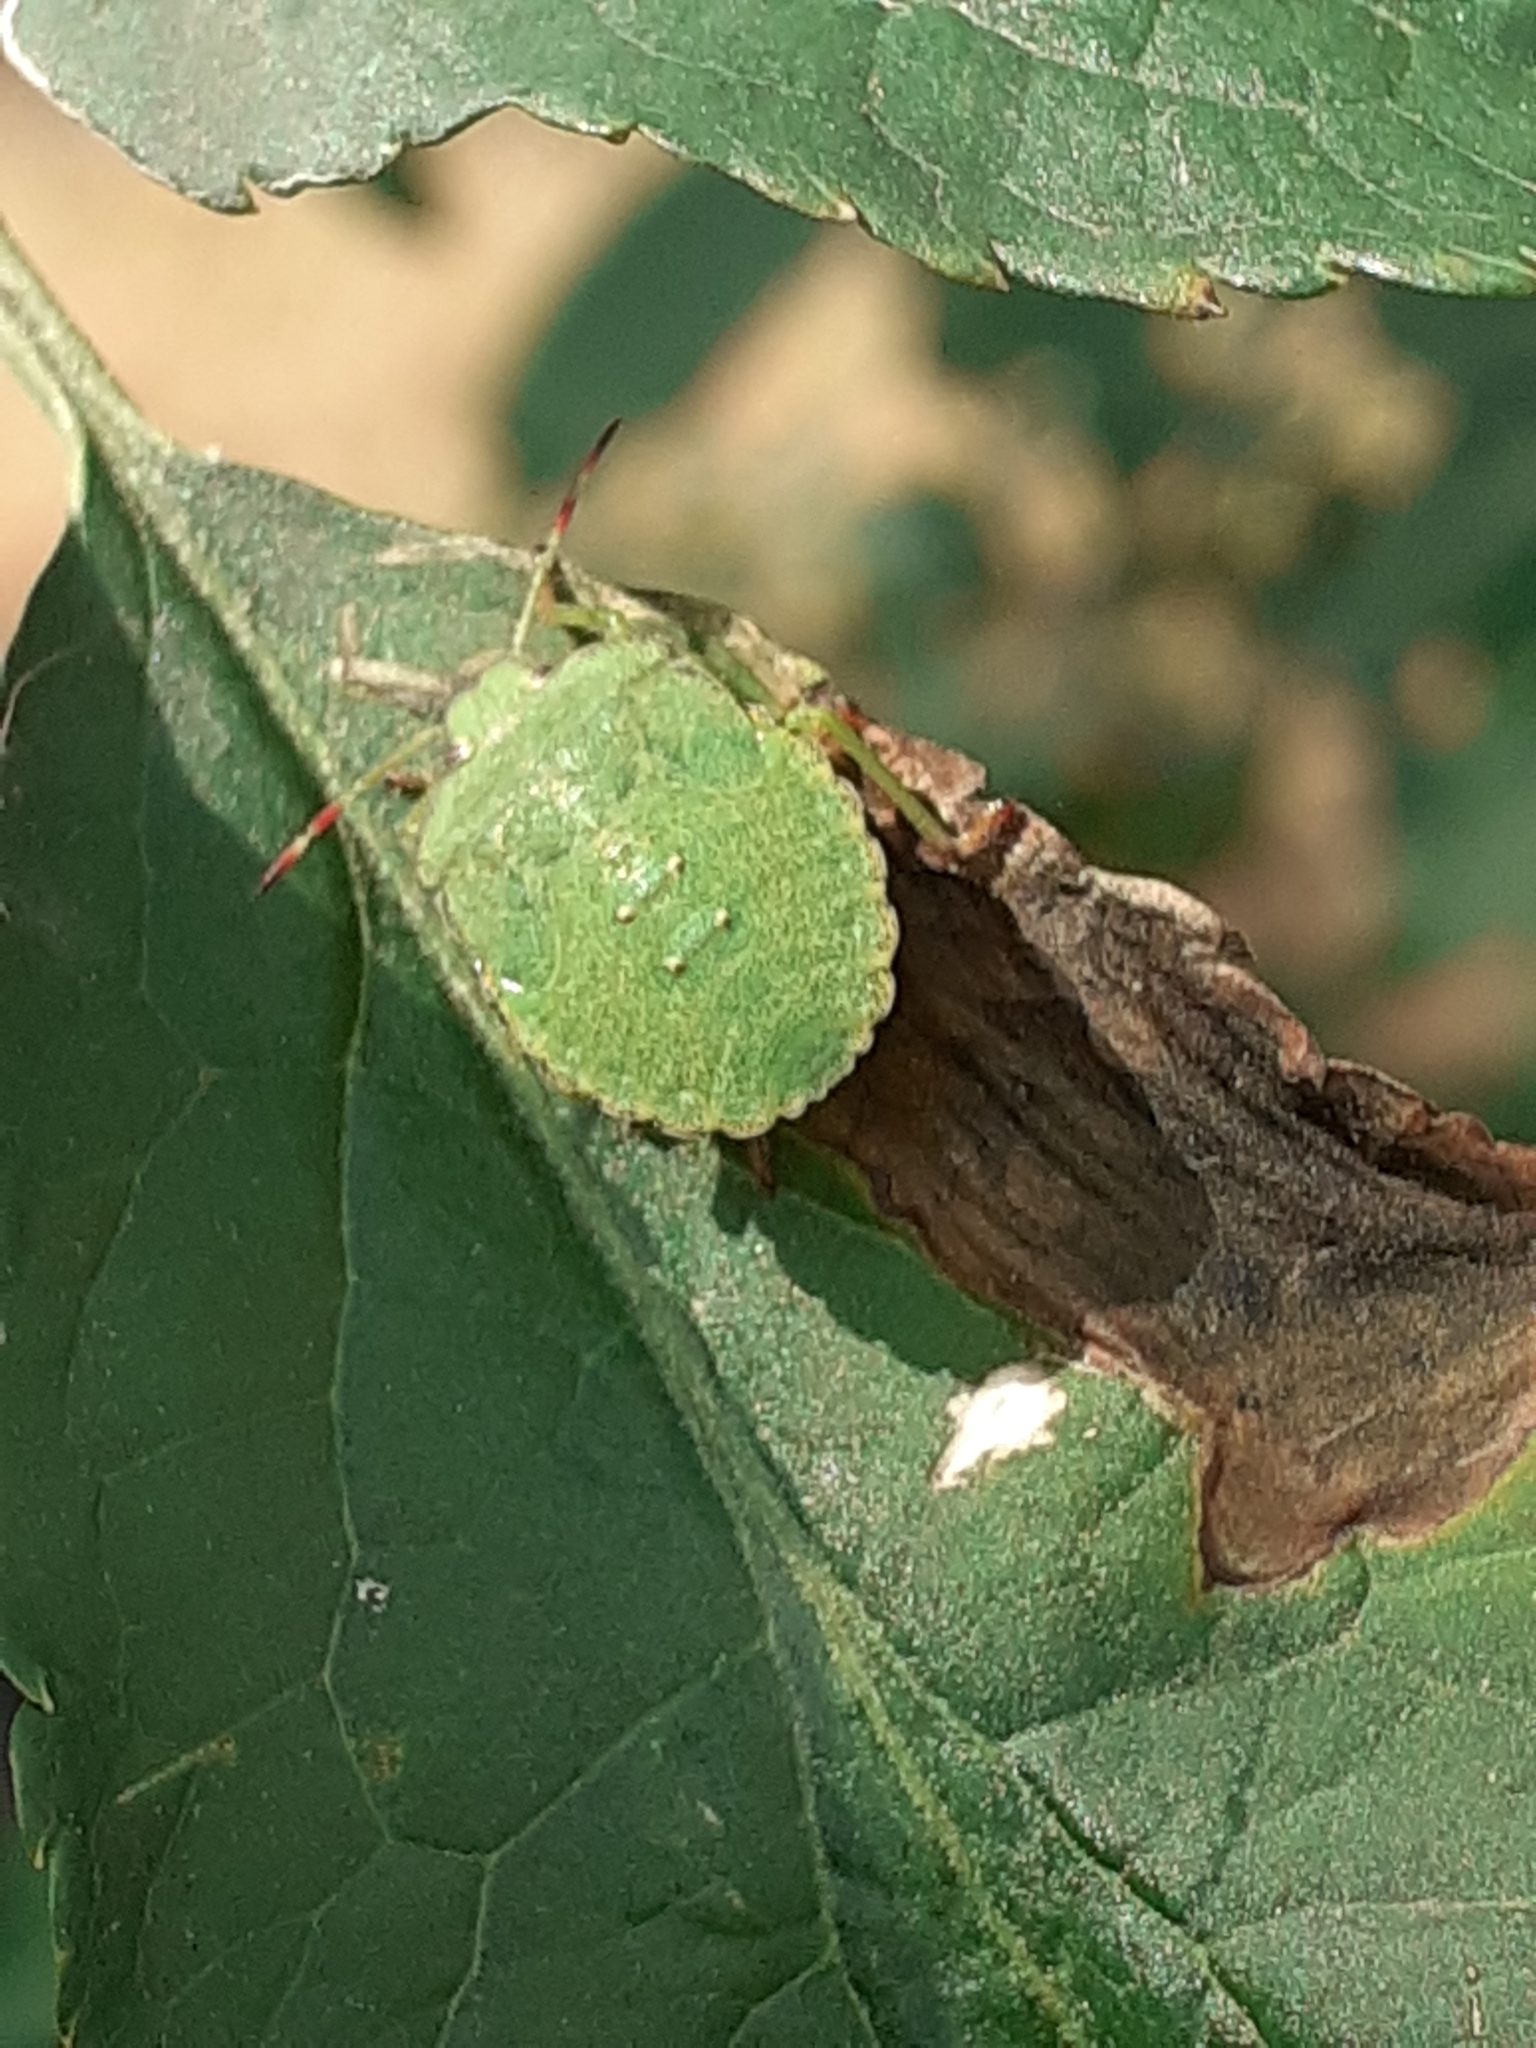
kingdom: Animalia
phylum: Arthropoda
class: Insecta
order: Hemiptera
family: Pentatomidae
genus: Palomena
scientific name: Palomena prasina
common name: Green shieldbug
